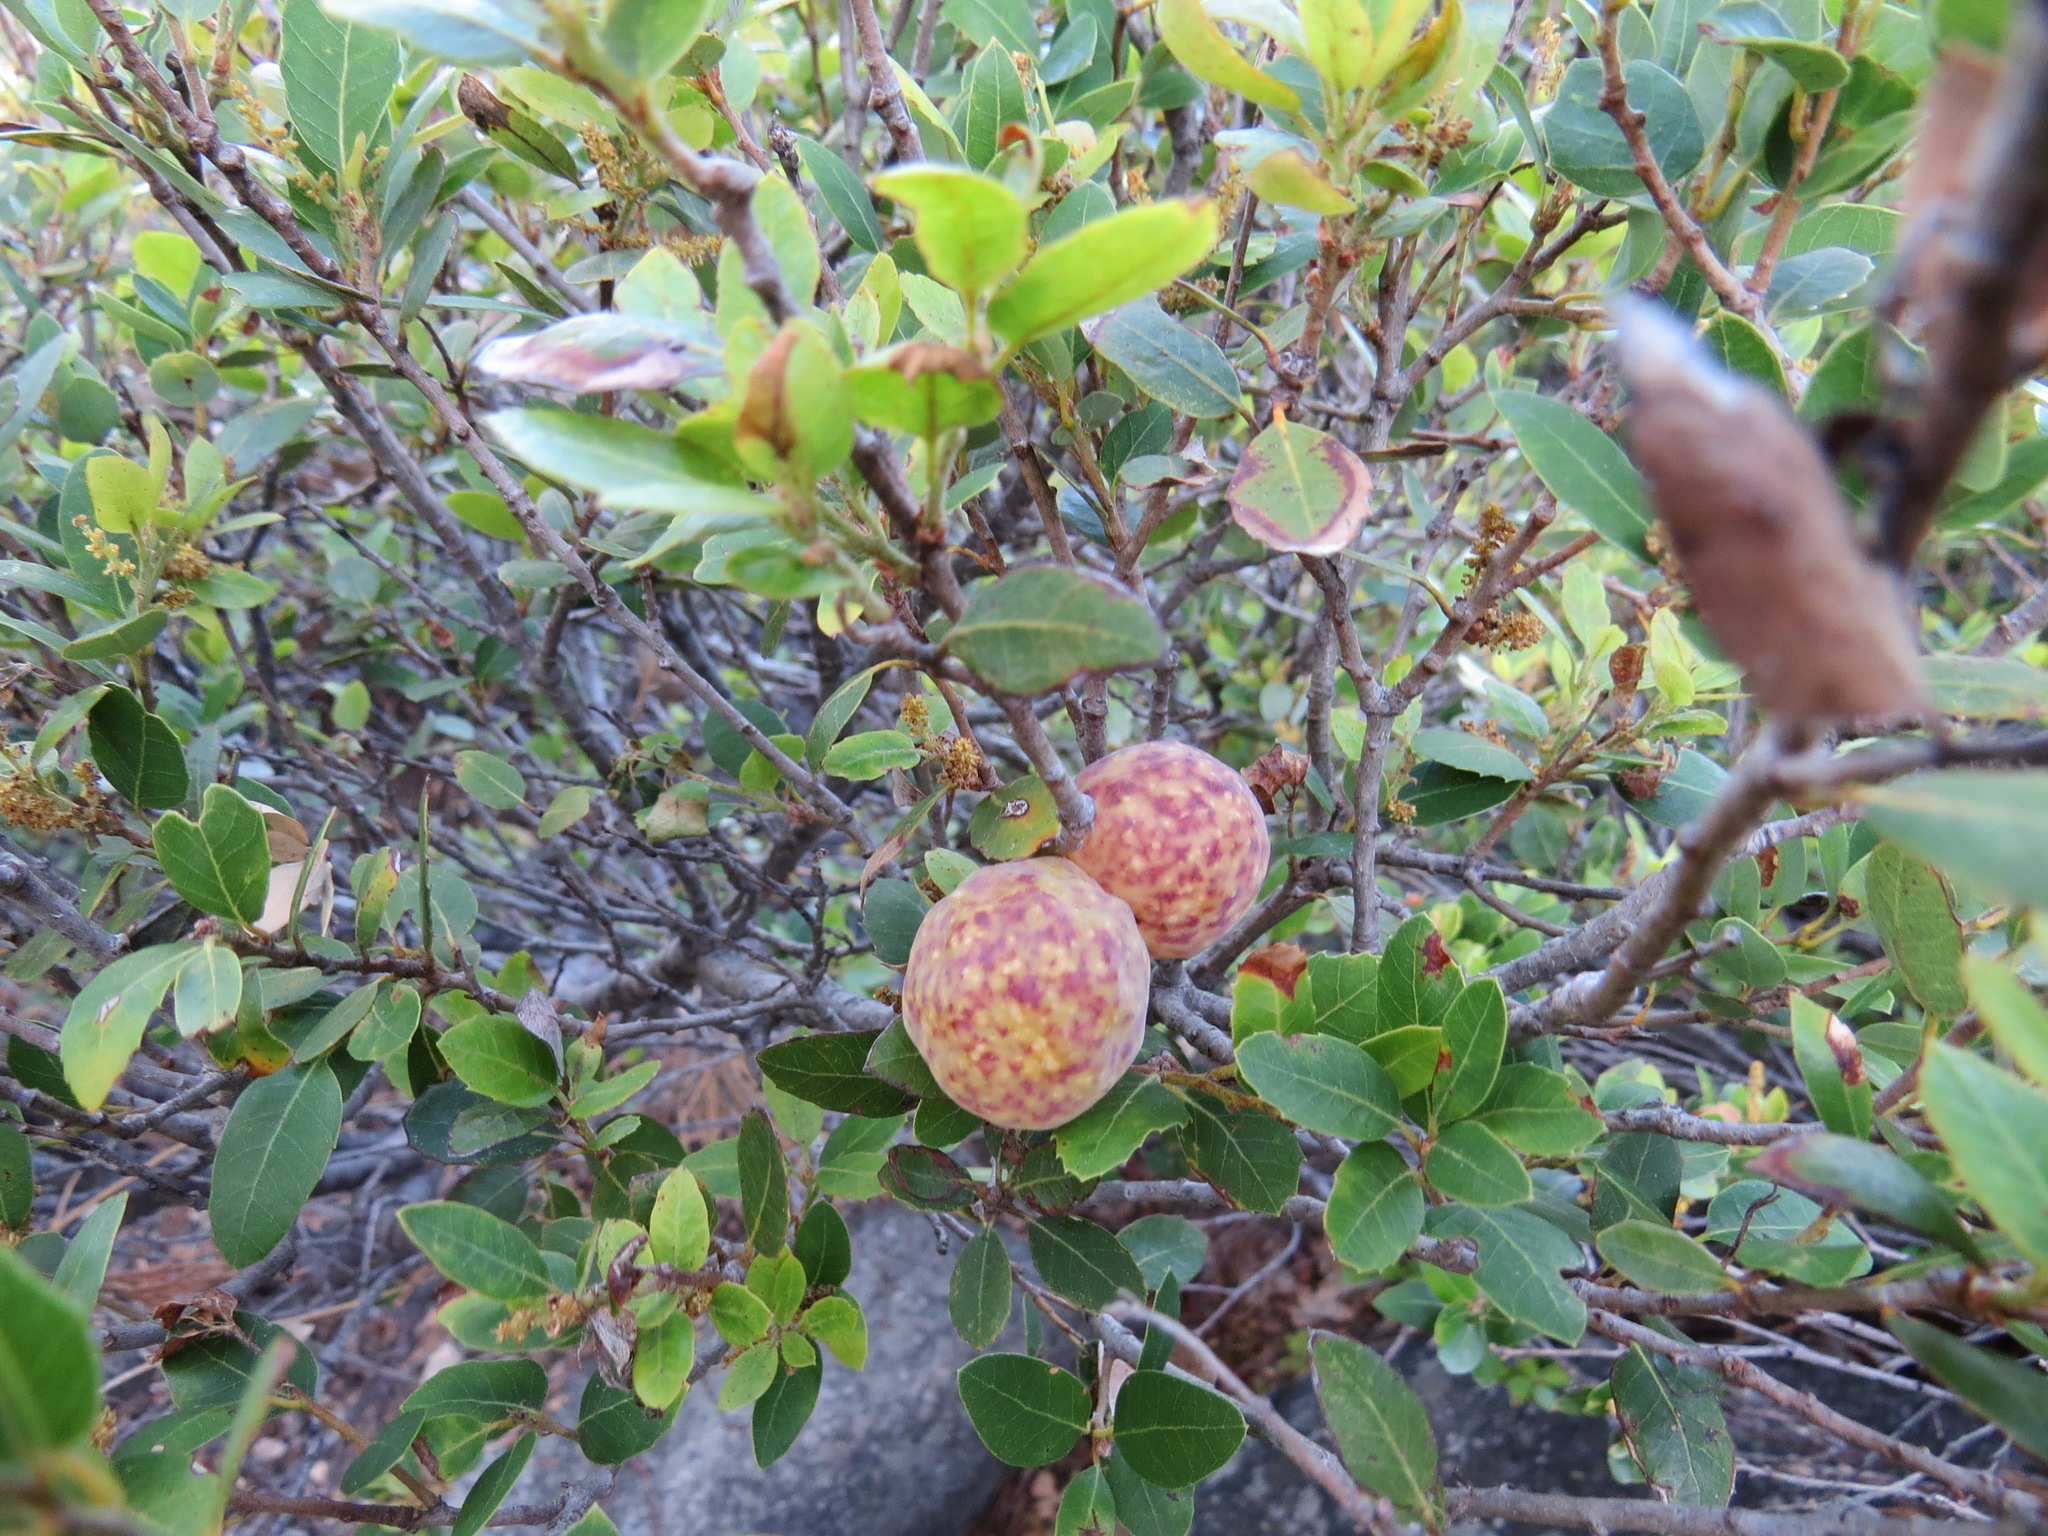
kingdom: Animalia
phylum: Arthropoda
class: Insecta
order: Hymenoptera
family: Cynipidae
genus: Andricus
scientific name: Andricus
